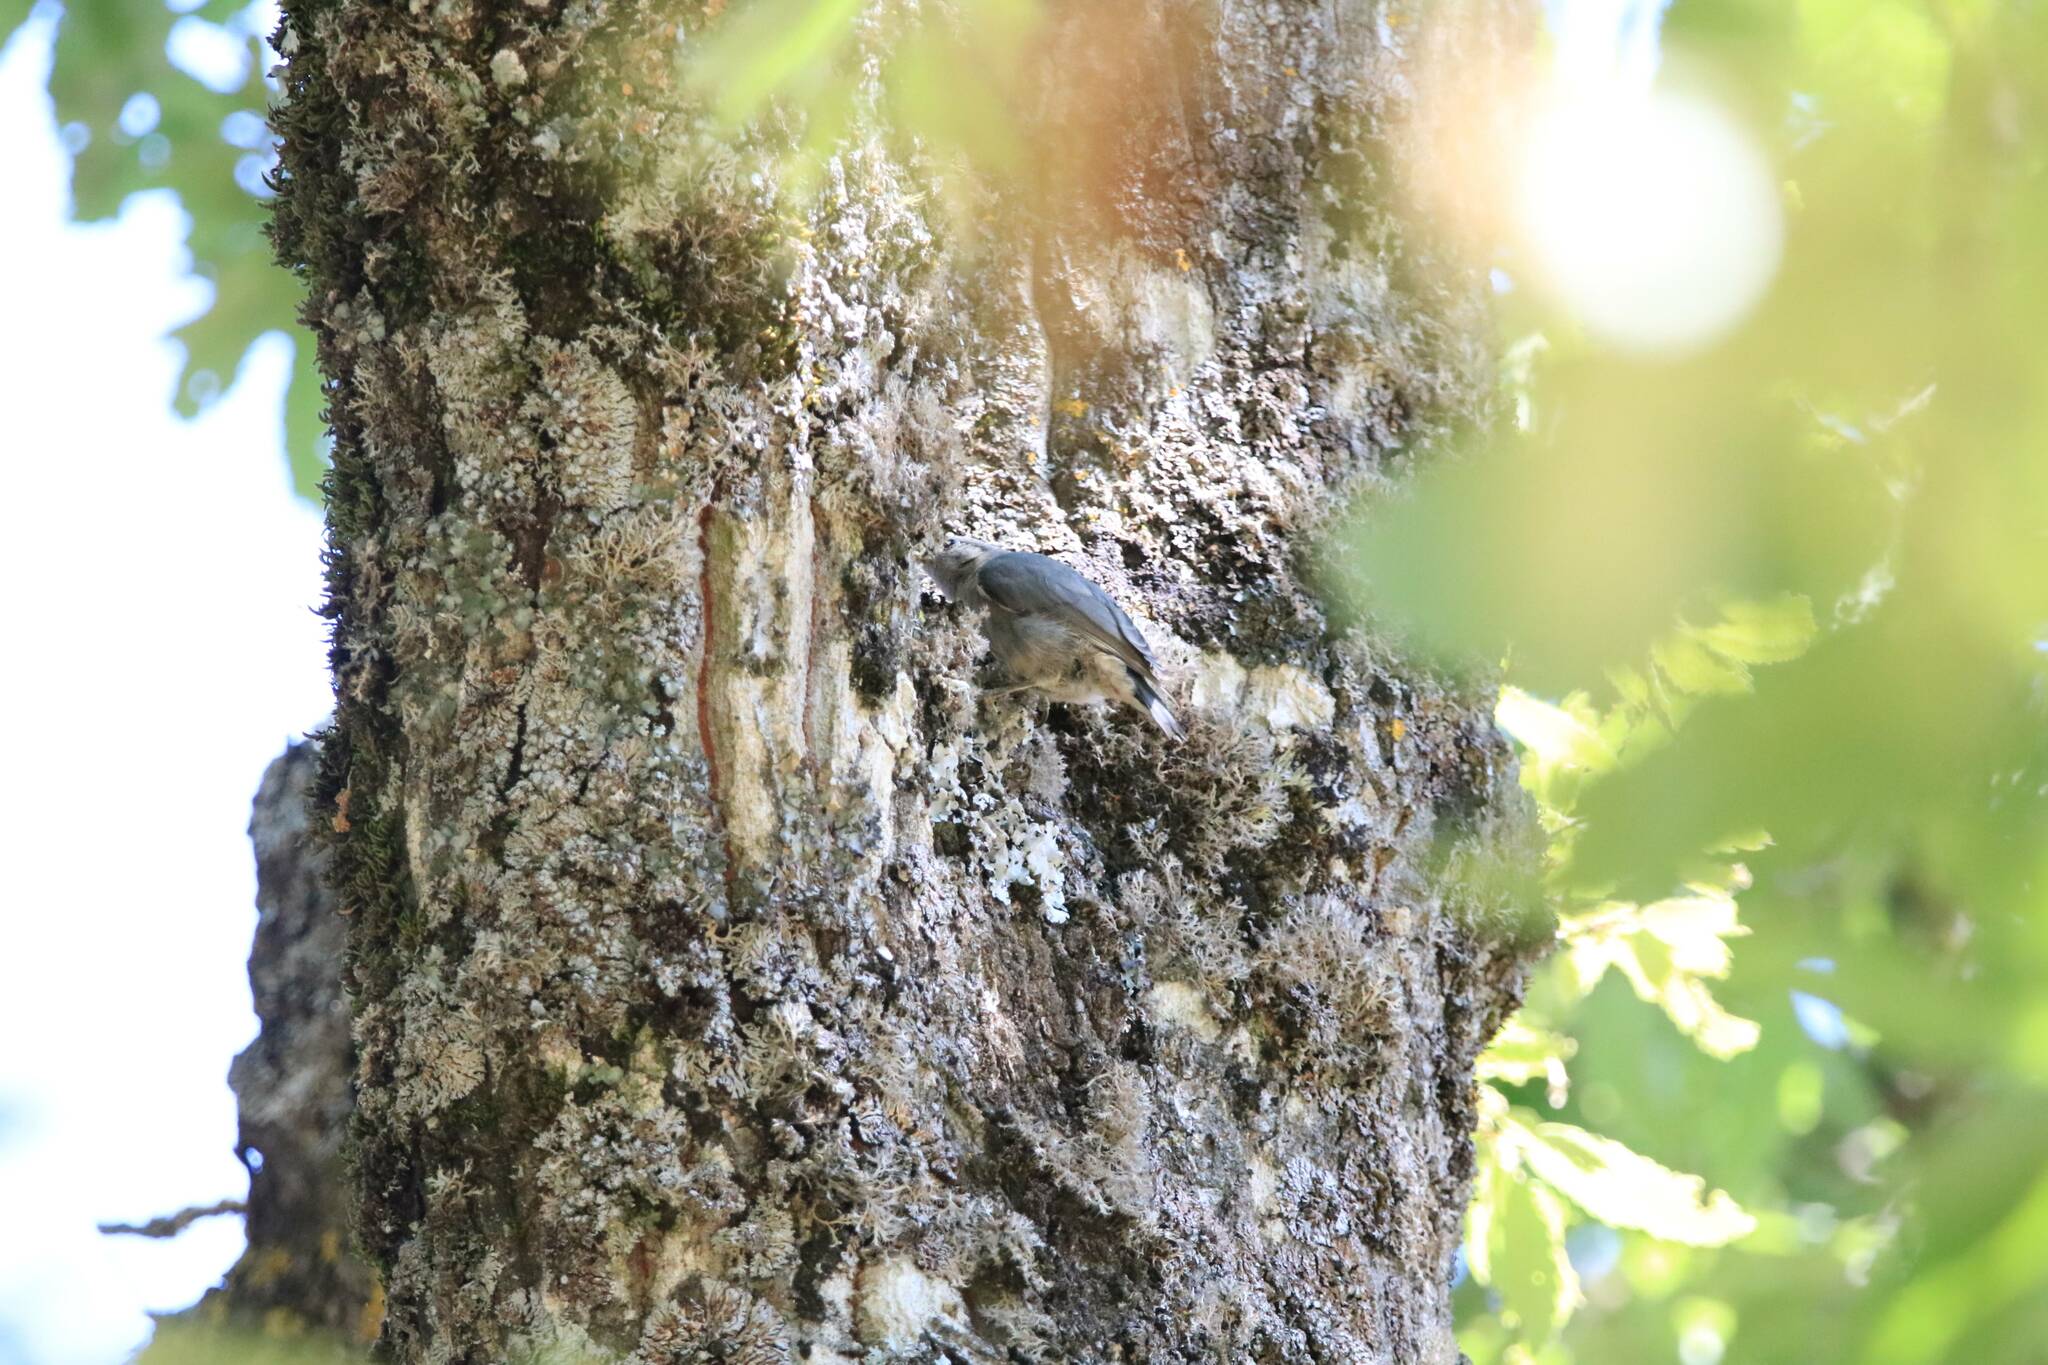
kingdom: Animalia
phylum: Chordata
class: Aves
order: Passeriformes
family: Sittidae
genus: Sitta
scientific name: Sitta ledanti
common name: Algerian nuthatch
